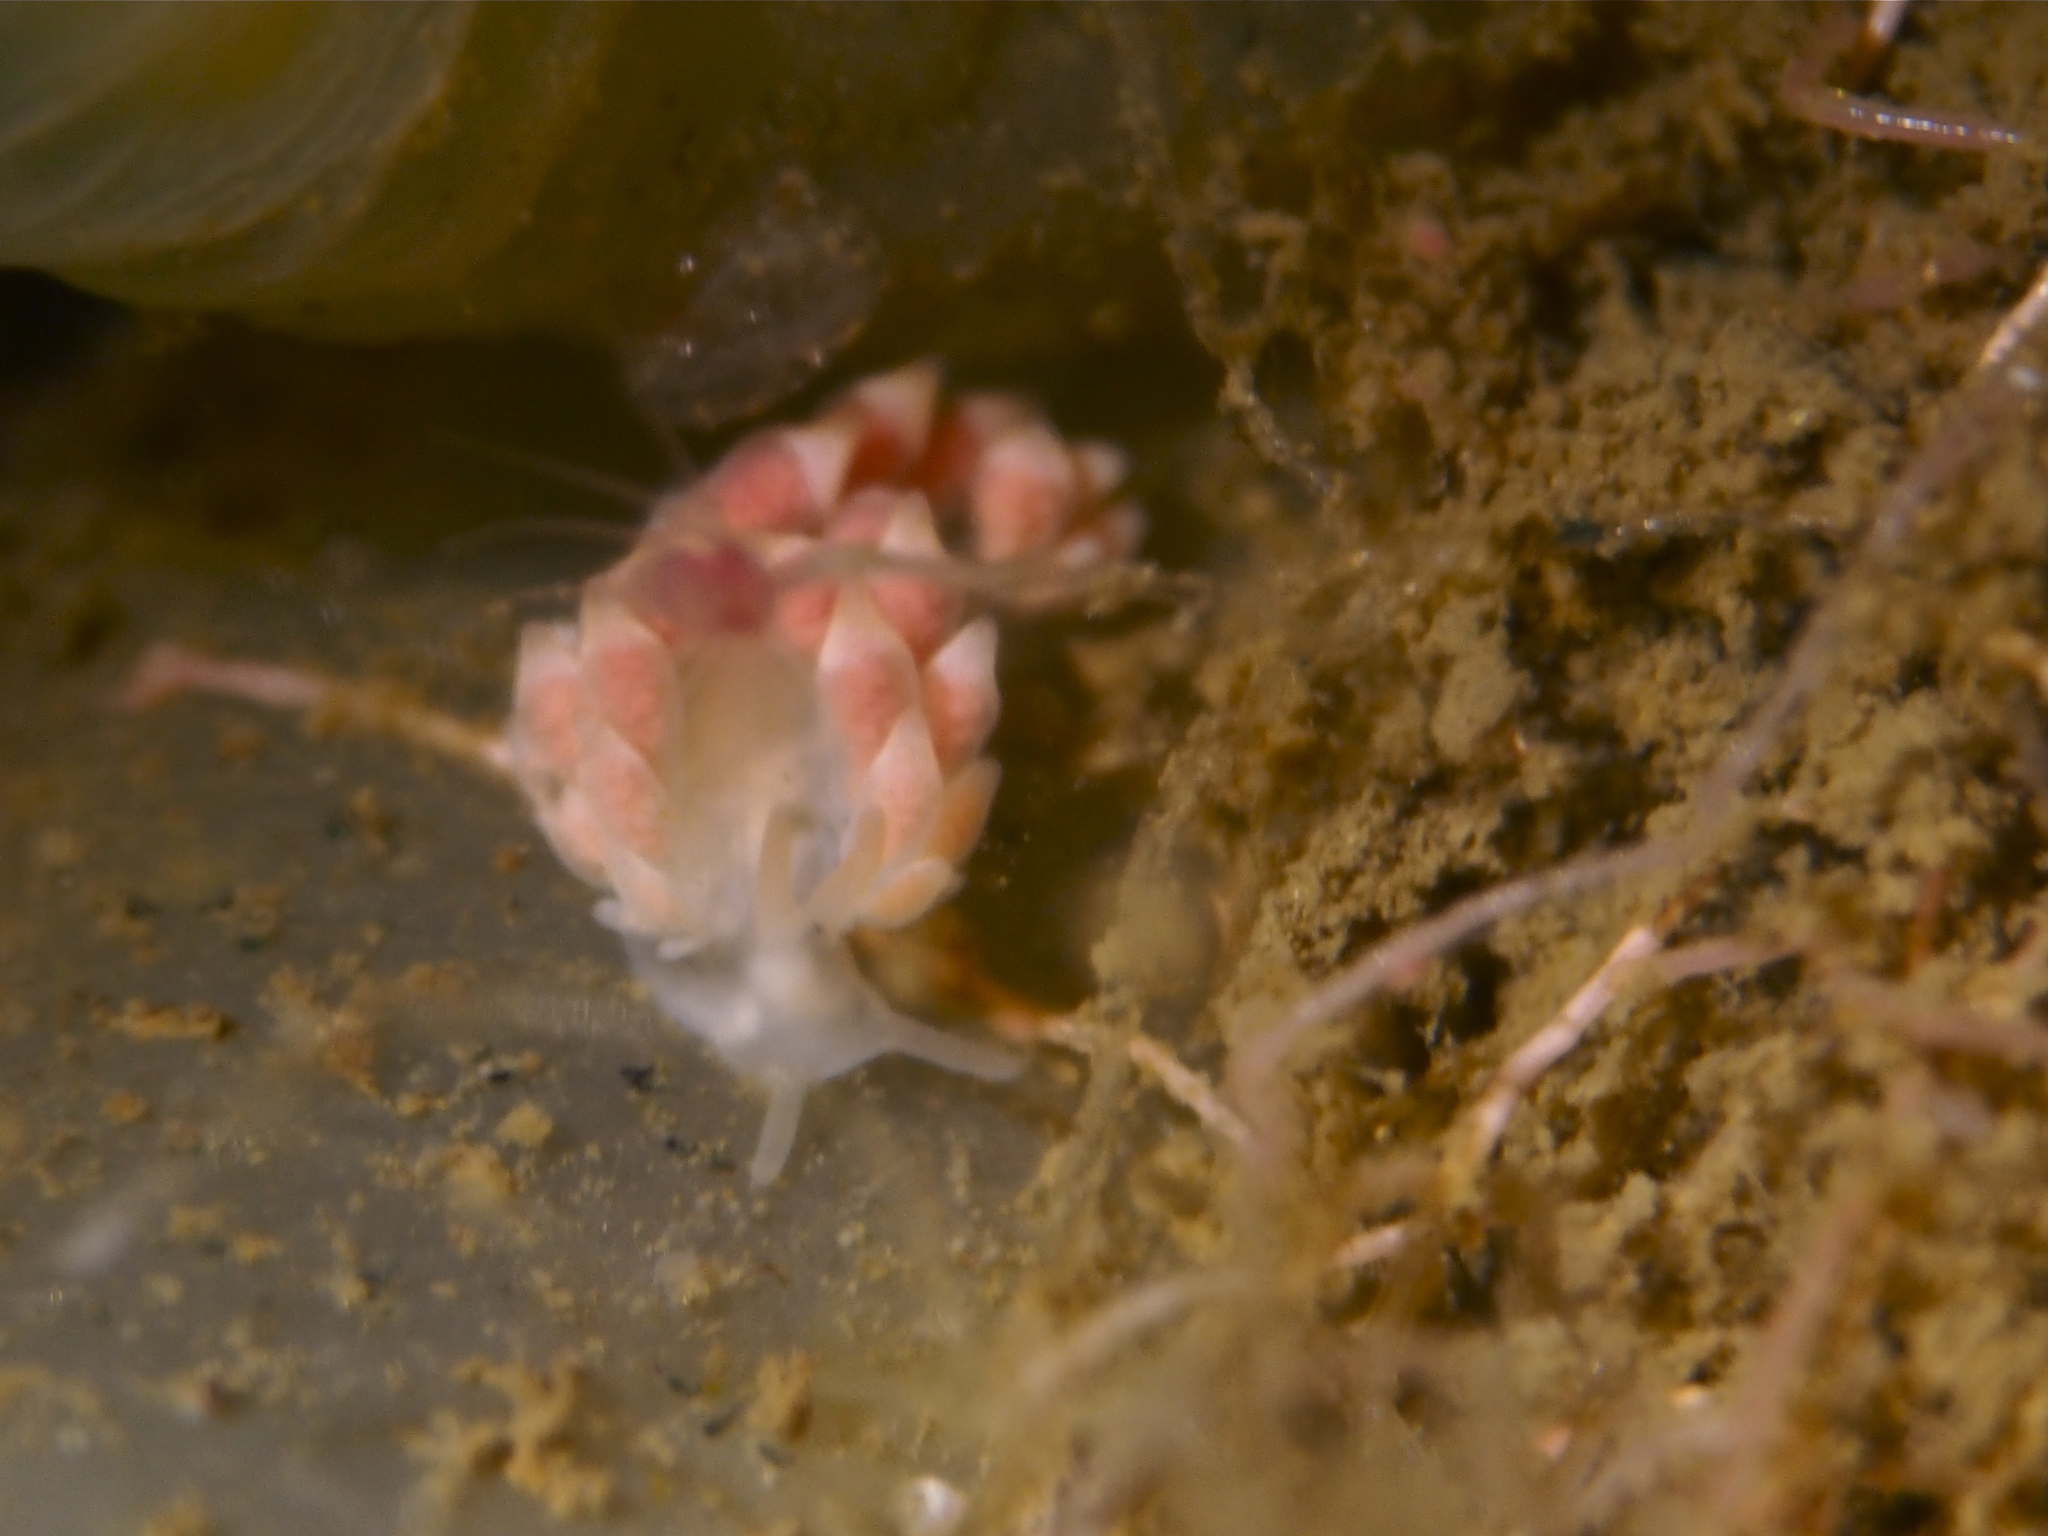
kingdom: Animalia
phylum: Mollusca
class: Gastropoda
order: Nudibranchia
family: Trinchesiidae
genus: Catriona
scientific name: Catriona aurantia
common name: Corange-tip cuthona
